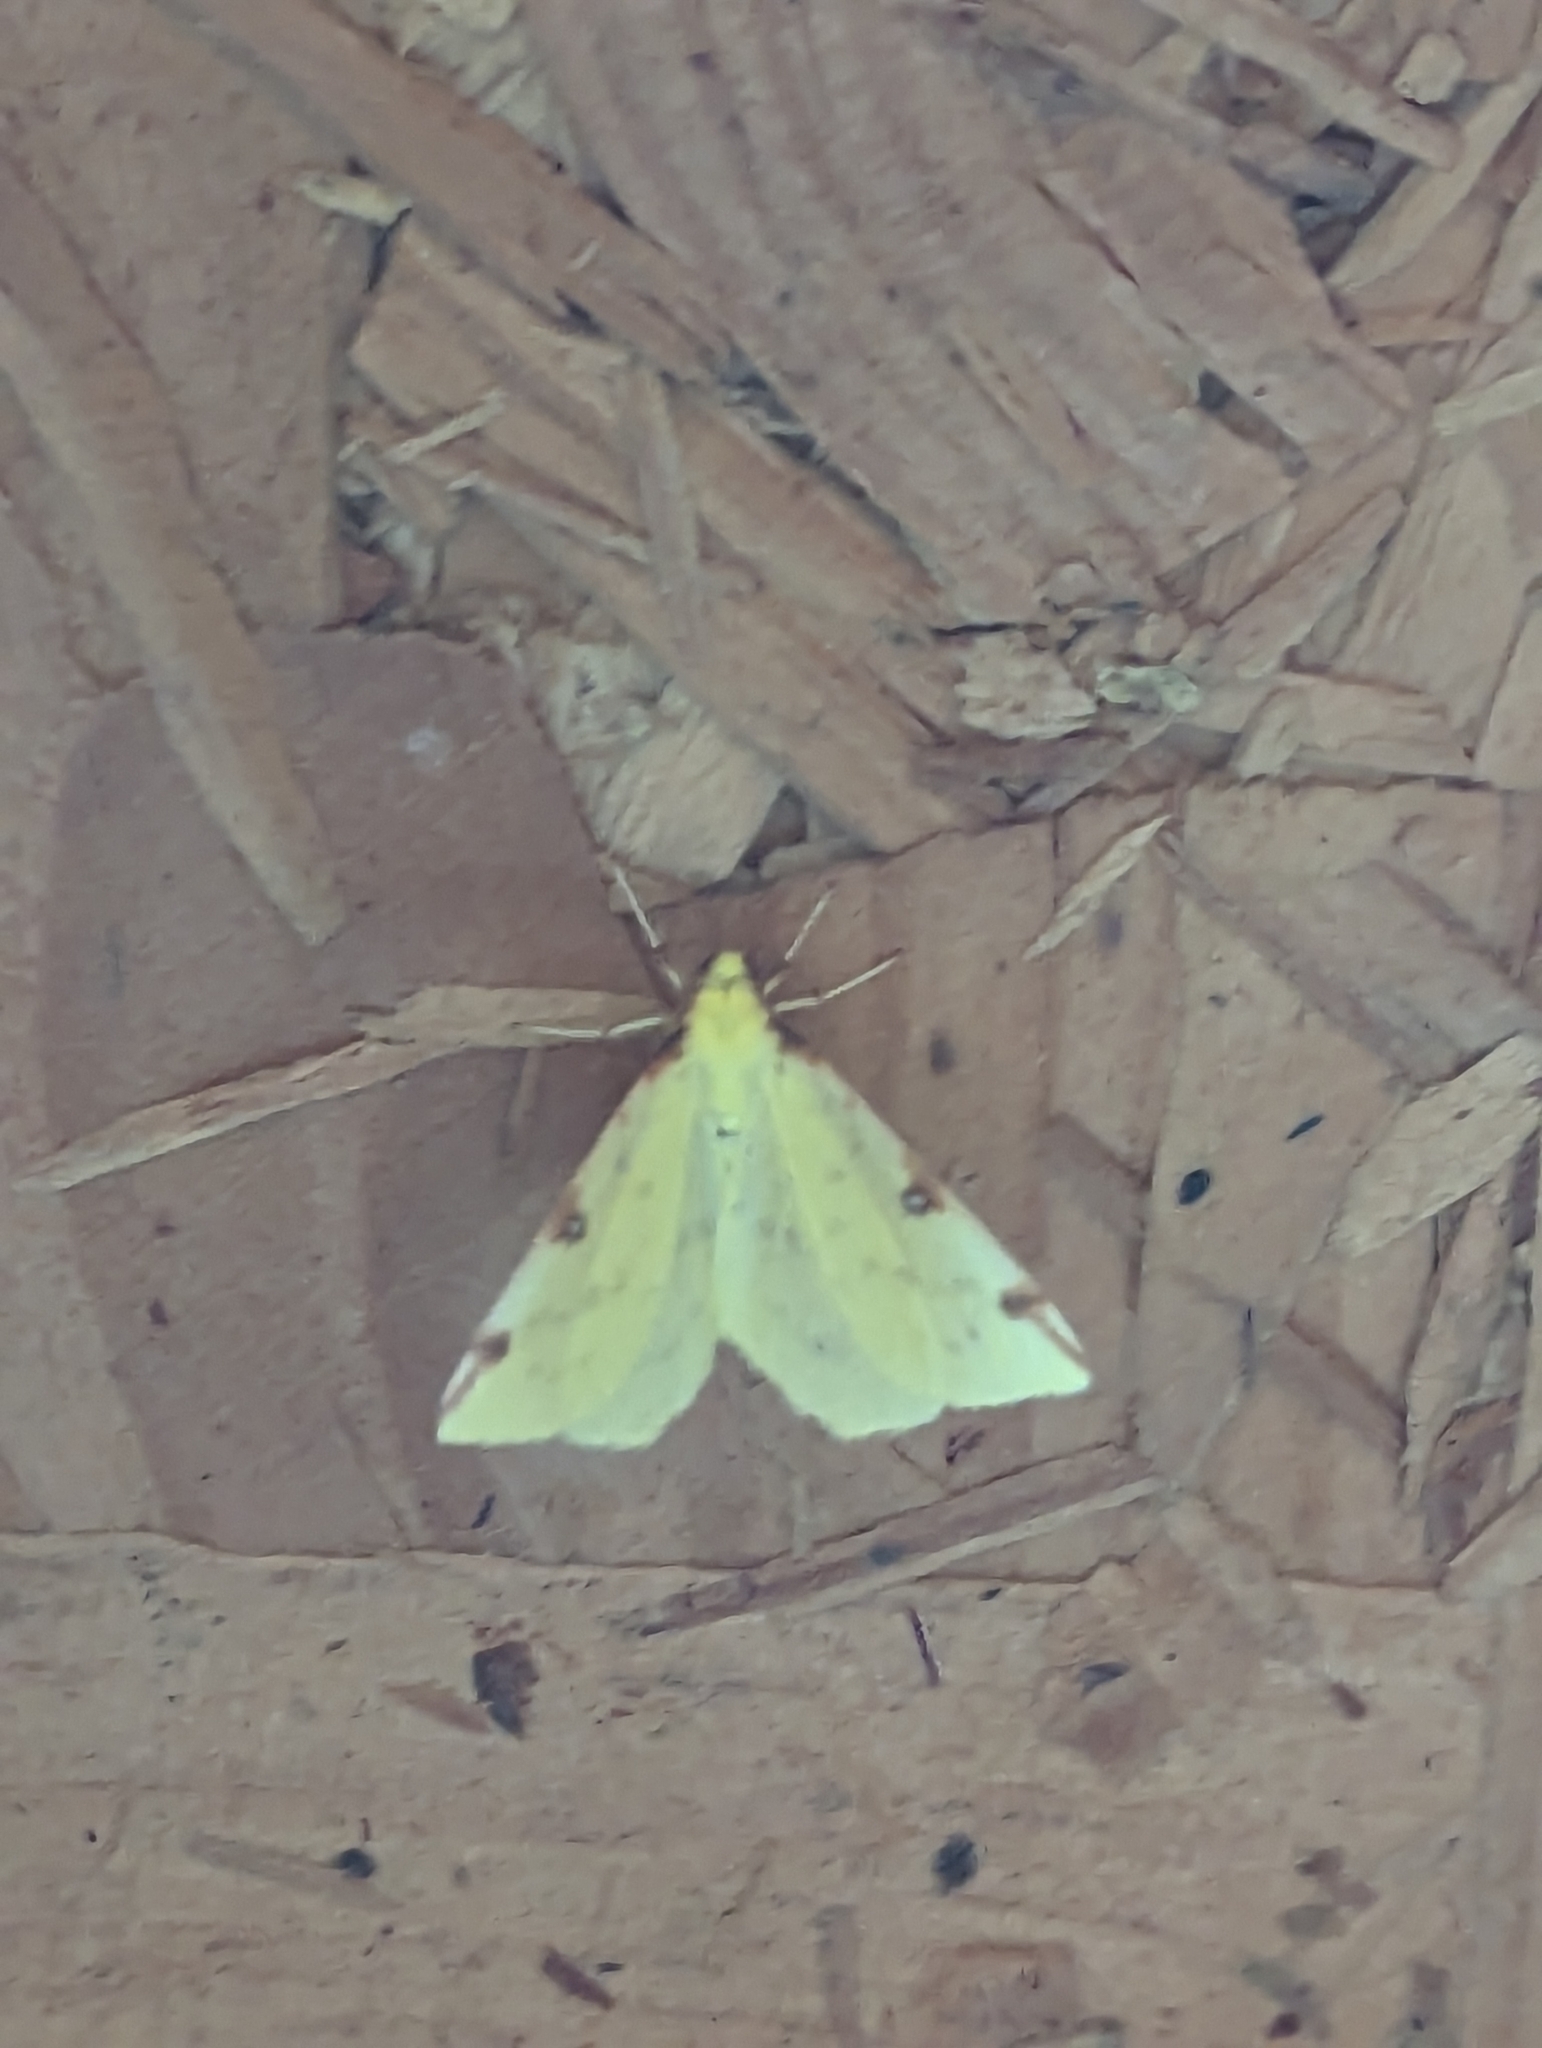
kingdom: Animalia
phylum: Arthropoda
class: Insecta
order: Lepidoptera
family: Geometridae
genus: Opisthograptis
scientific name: Opisthograptis luteolata
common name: Brimstone moth
